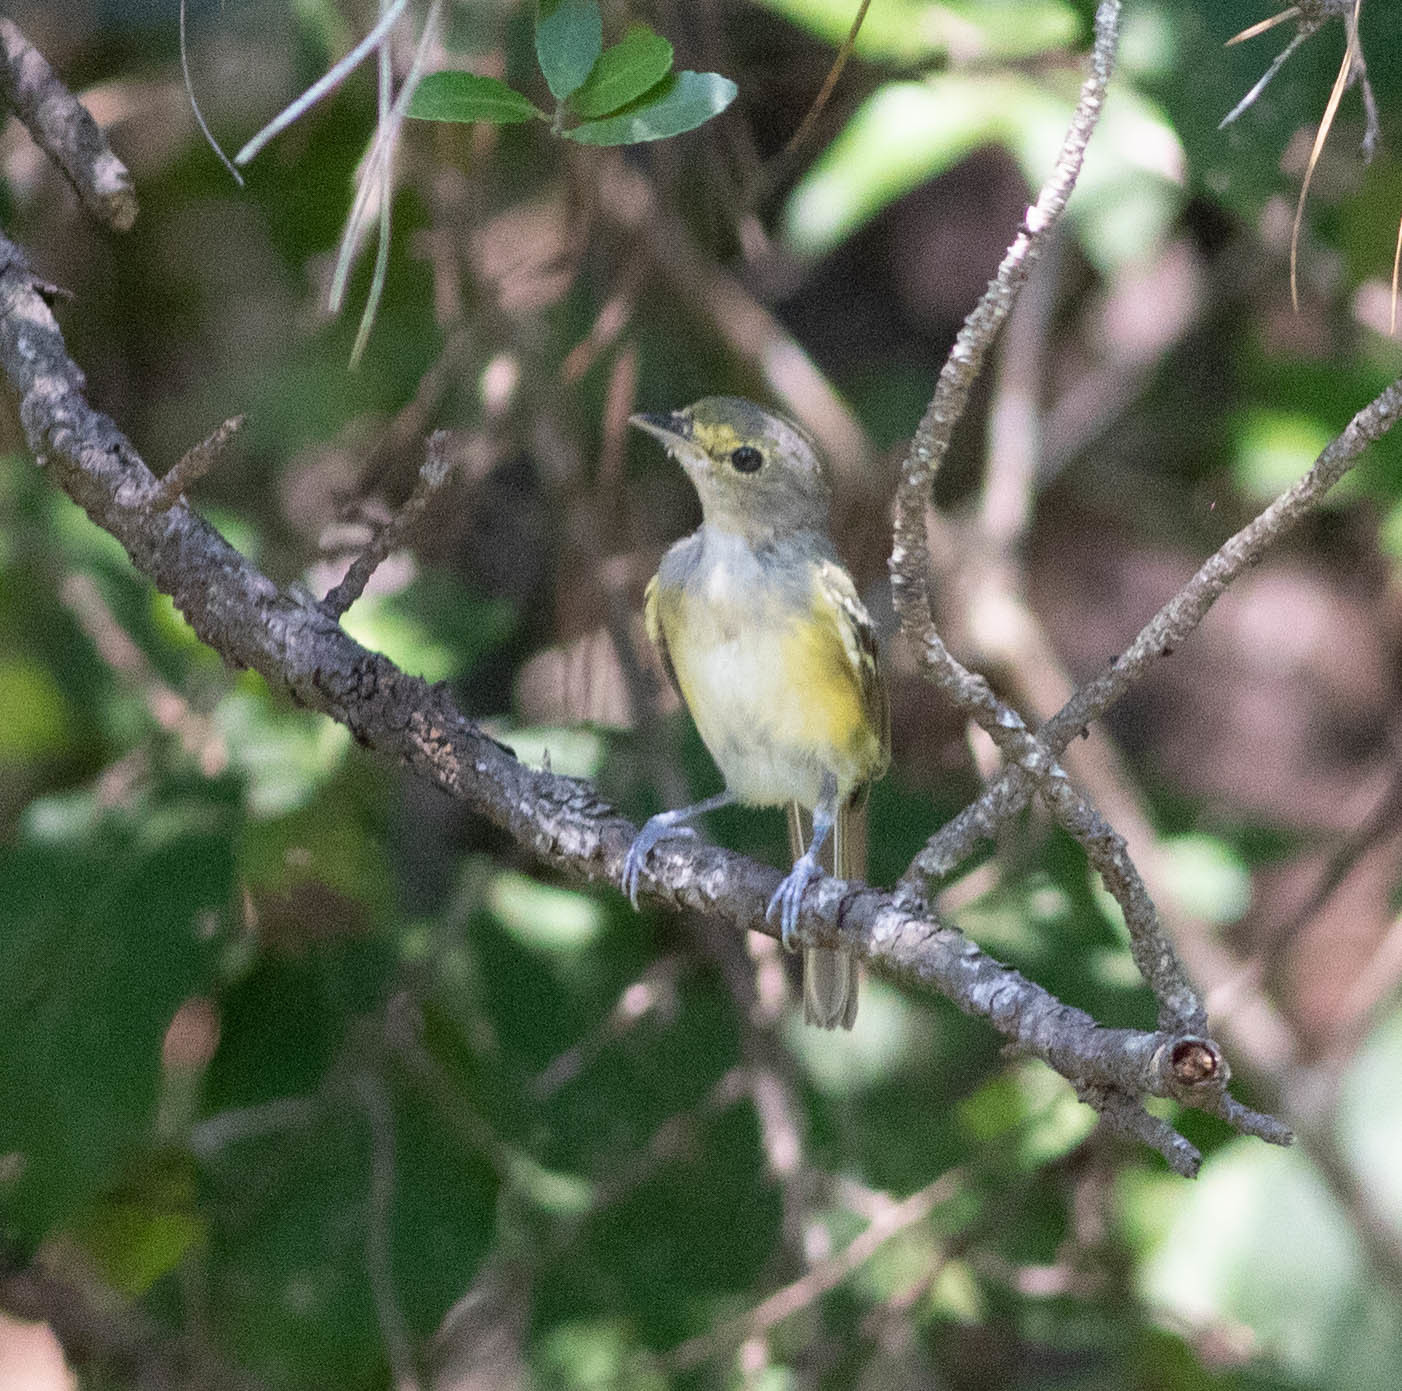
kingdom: Animalia
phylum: Chordata
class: Aves
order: Passeriformes
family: Vireonidae
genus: Vireo
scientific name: Vireo griseus
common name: White-eyed vireo
